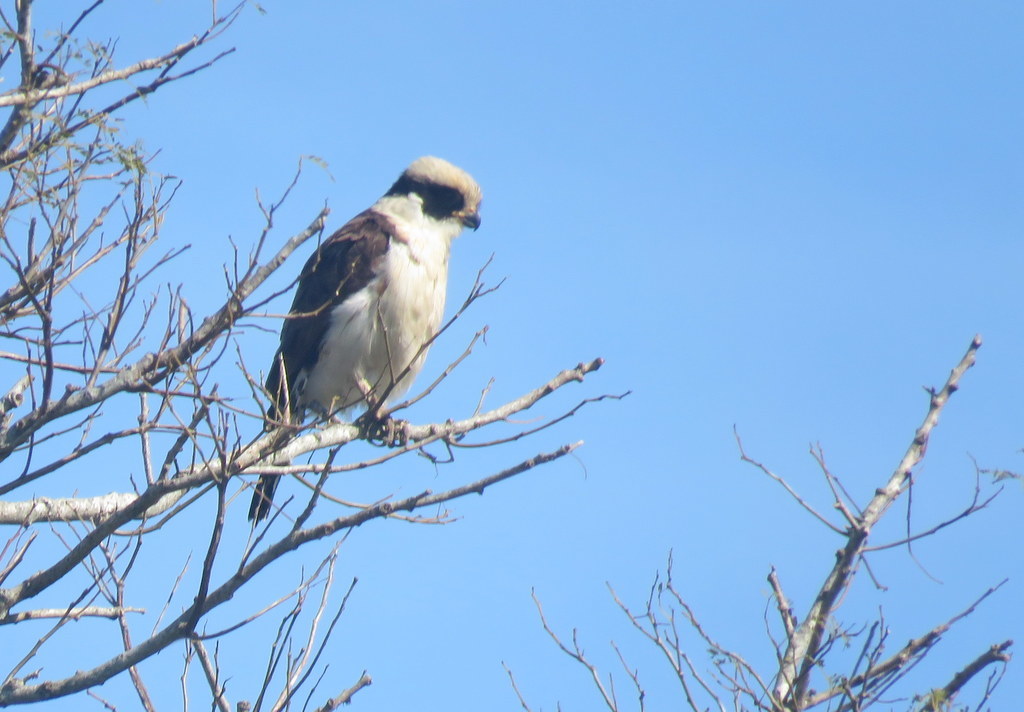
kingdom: Animalia
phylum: Chordata
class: Aves
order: Falconiformes
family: Falconidae
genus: Herpetotheres
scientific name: Herpetotheres cachinnans
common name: Laughing falcon
